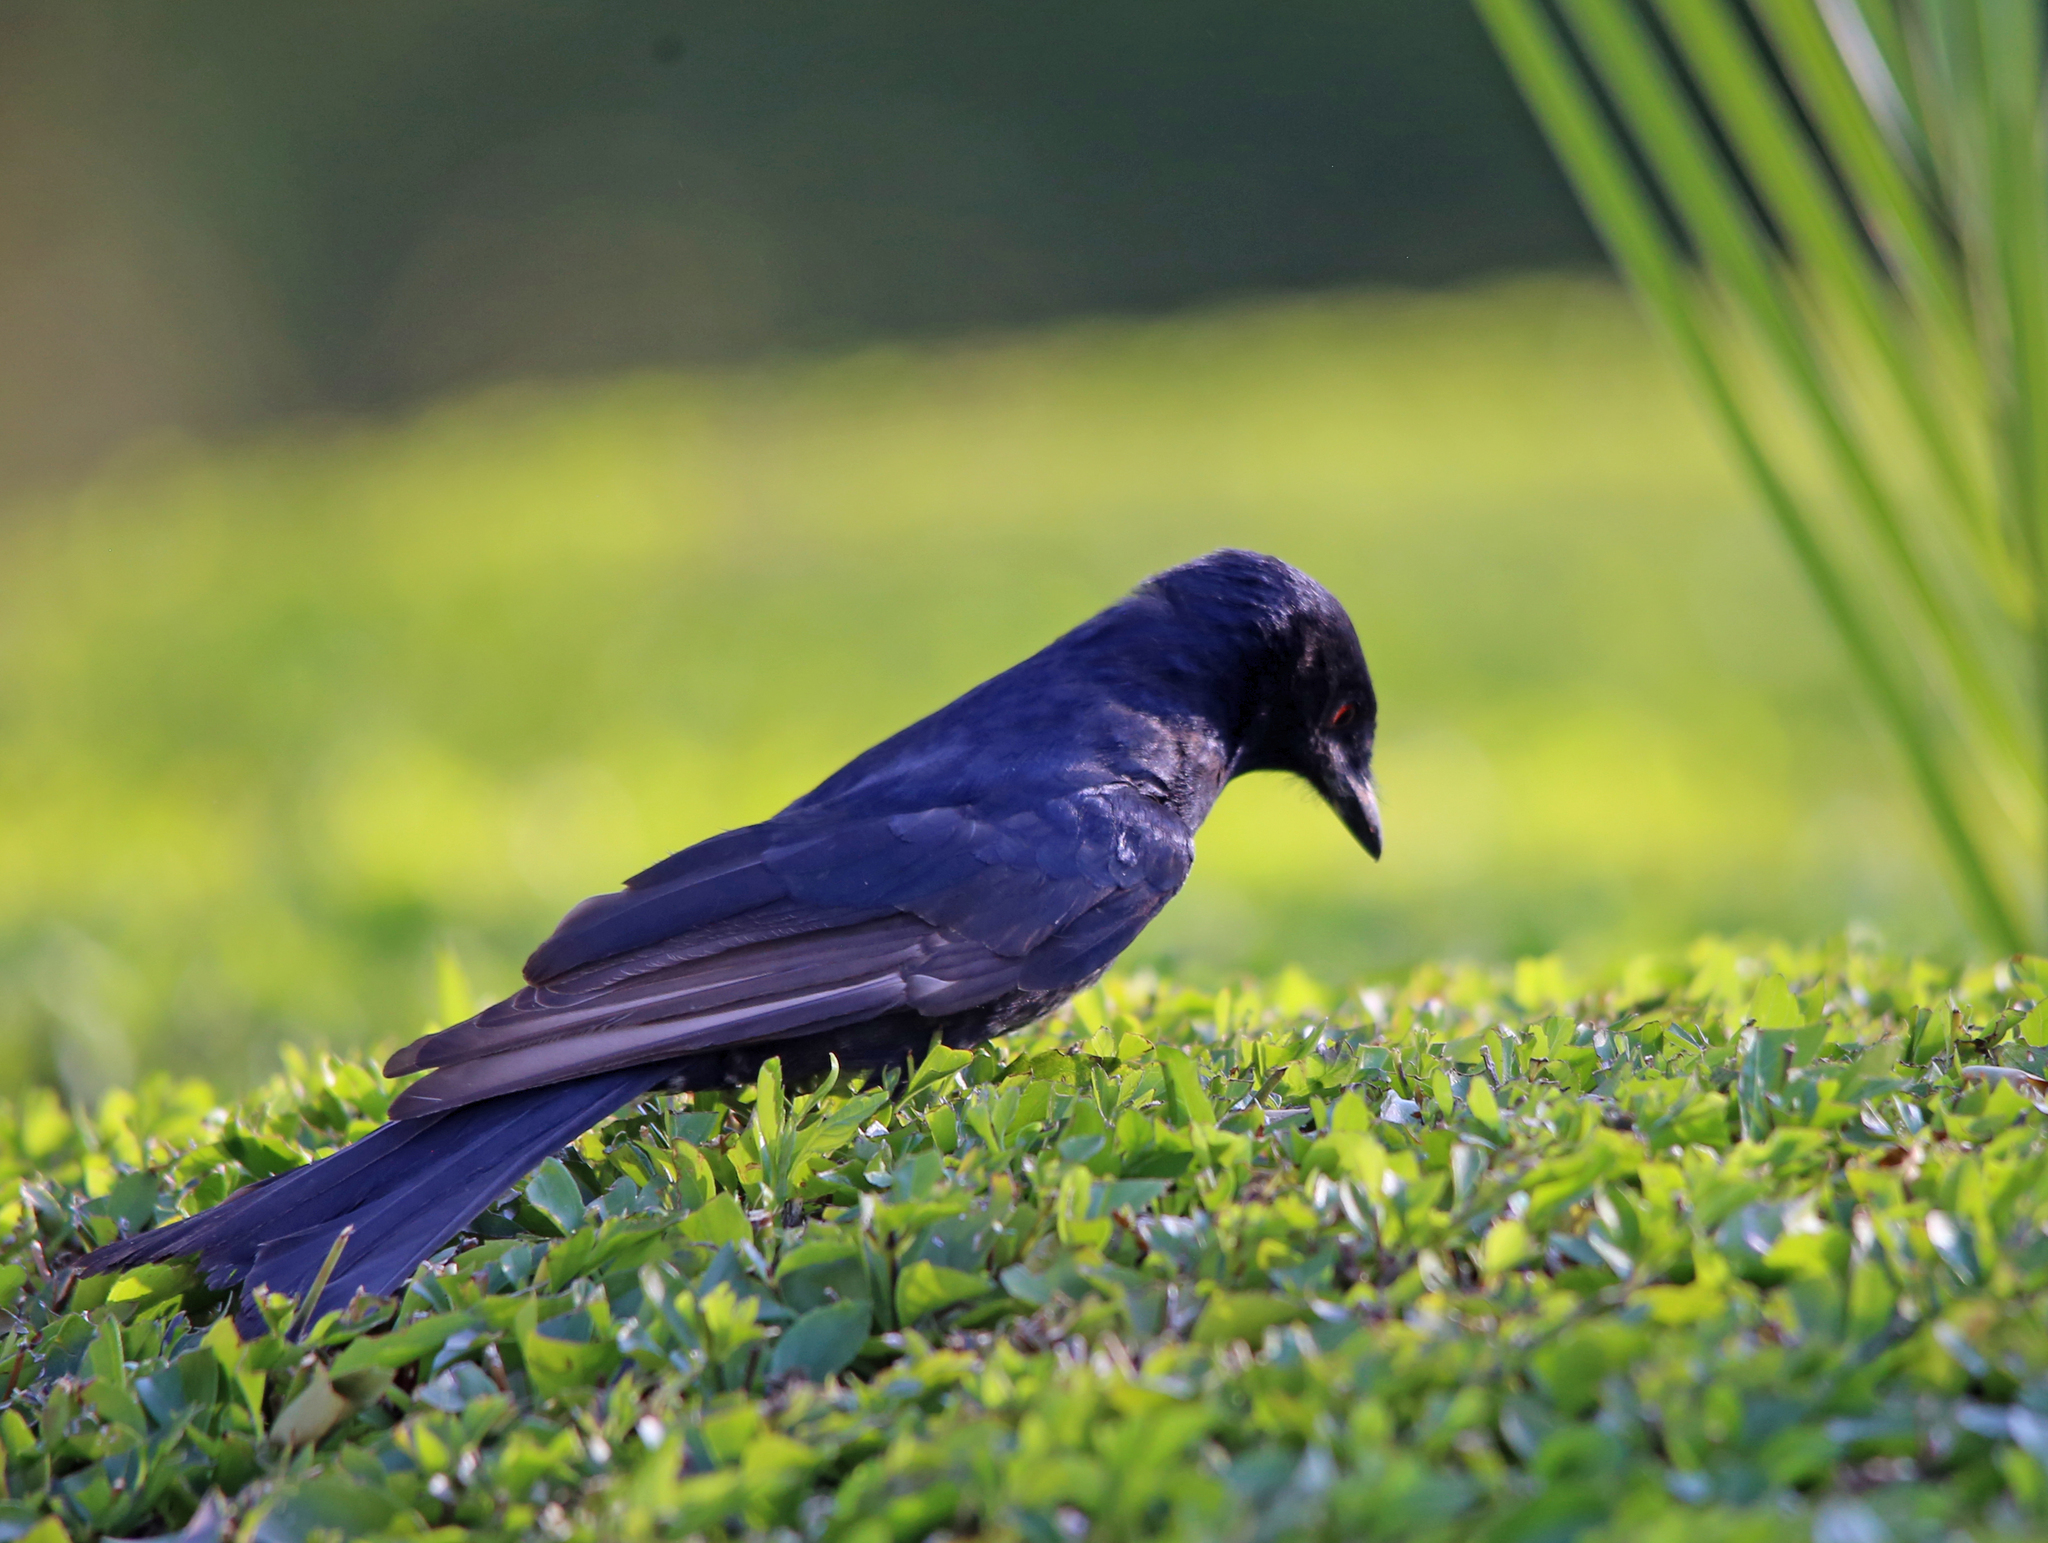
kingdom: Animalia
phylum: Chordata
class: Aves
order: Passeriformes
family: Dicruridae
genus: Dicrurus
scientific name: Dicrurus adsimilis
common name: Fork-tailed drongo
